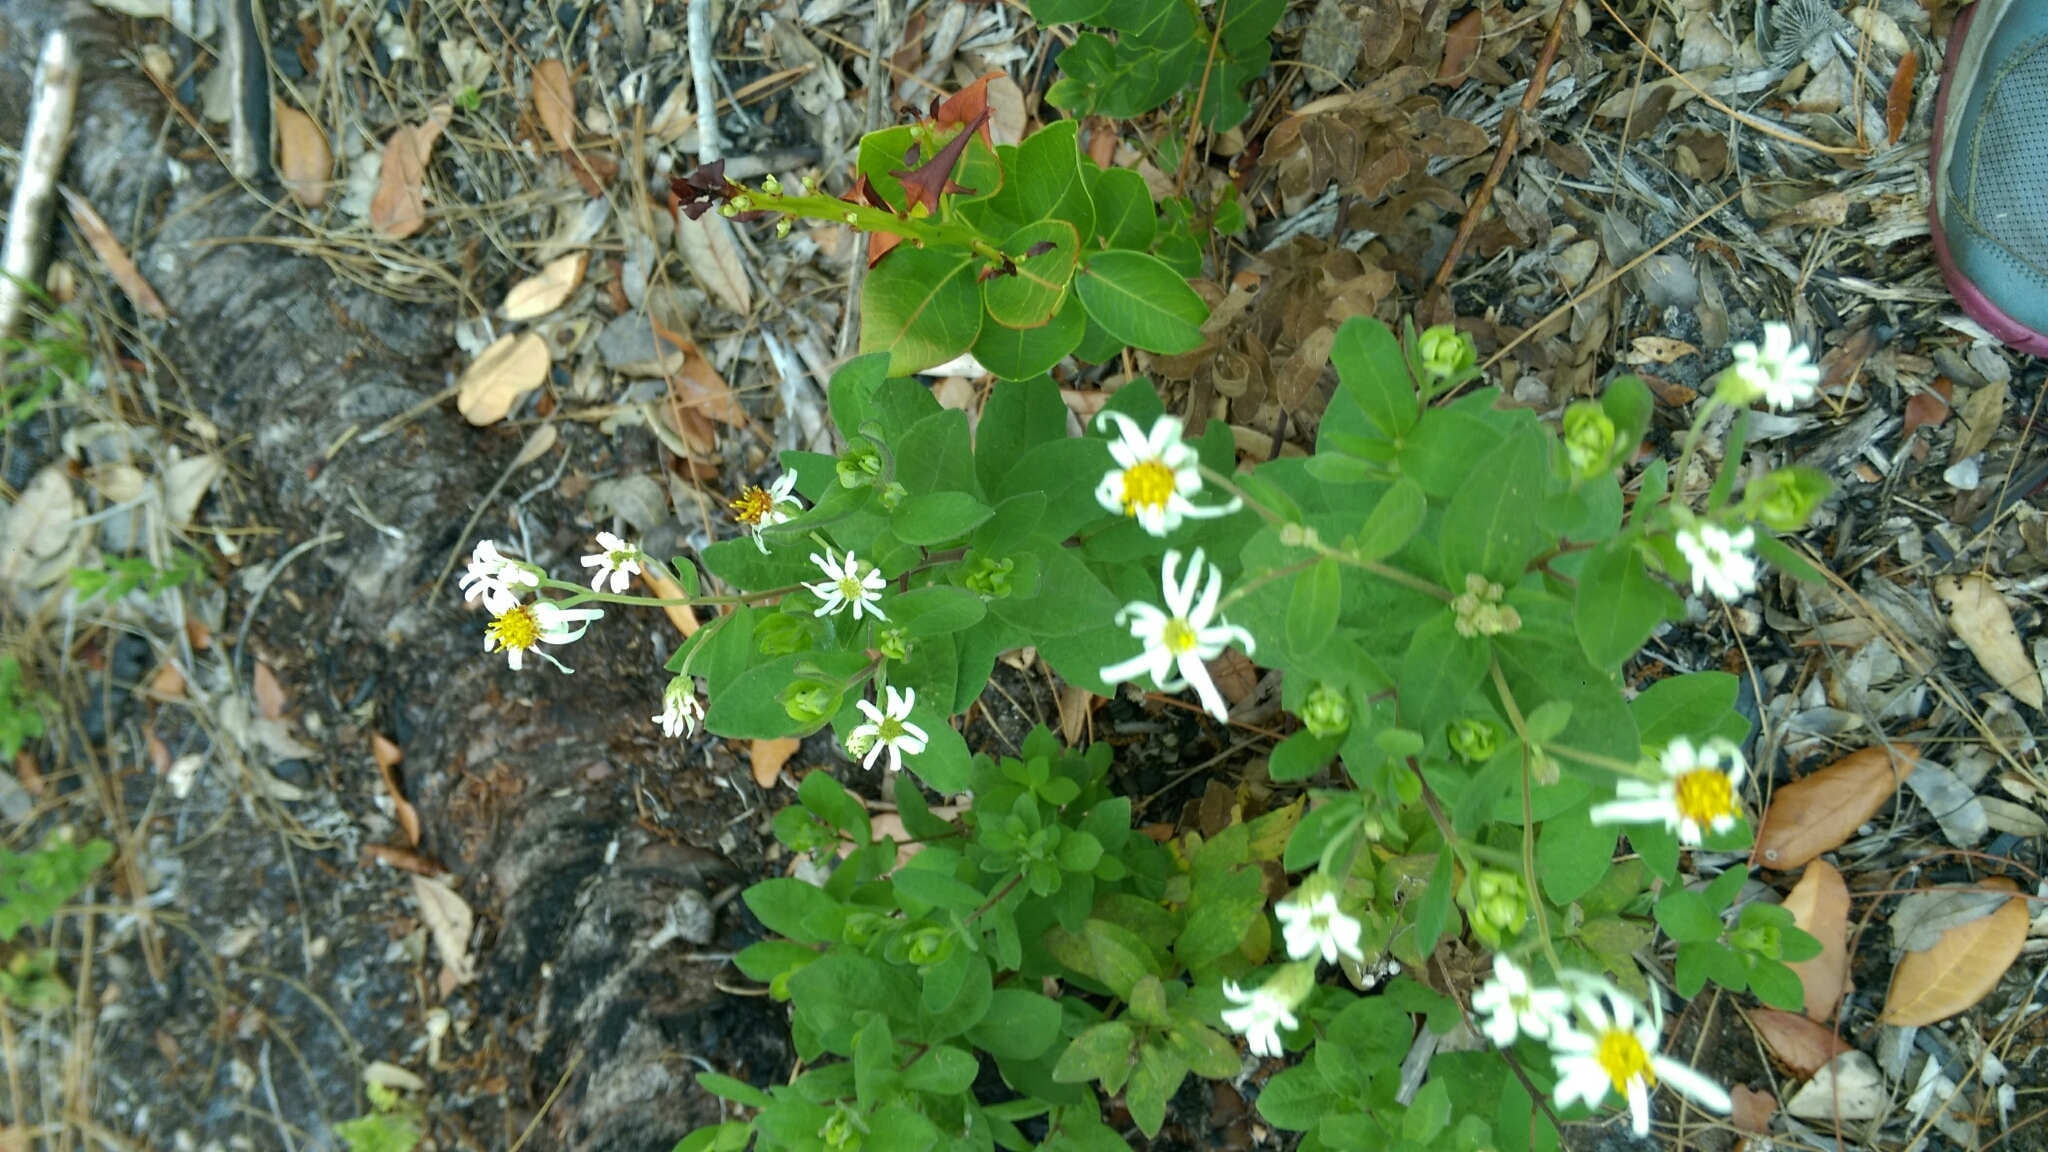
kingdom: Plantae
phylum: Tracheophyta
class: Magnoliopsida
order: Asterales
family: Asteraceae
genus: Oclemena
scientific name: Oclemena reticulata
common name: Pinebarren aster
